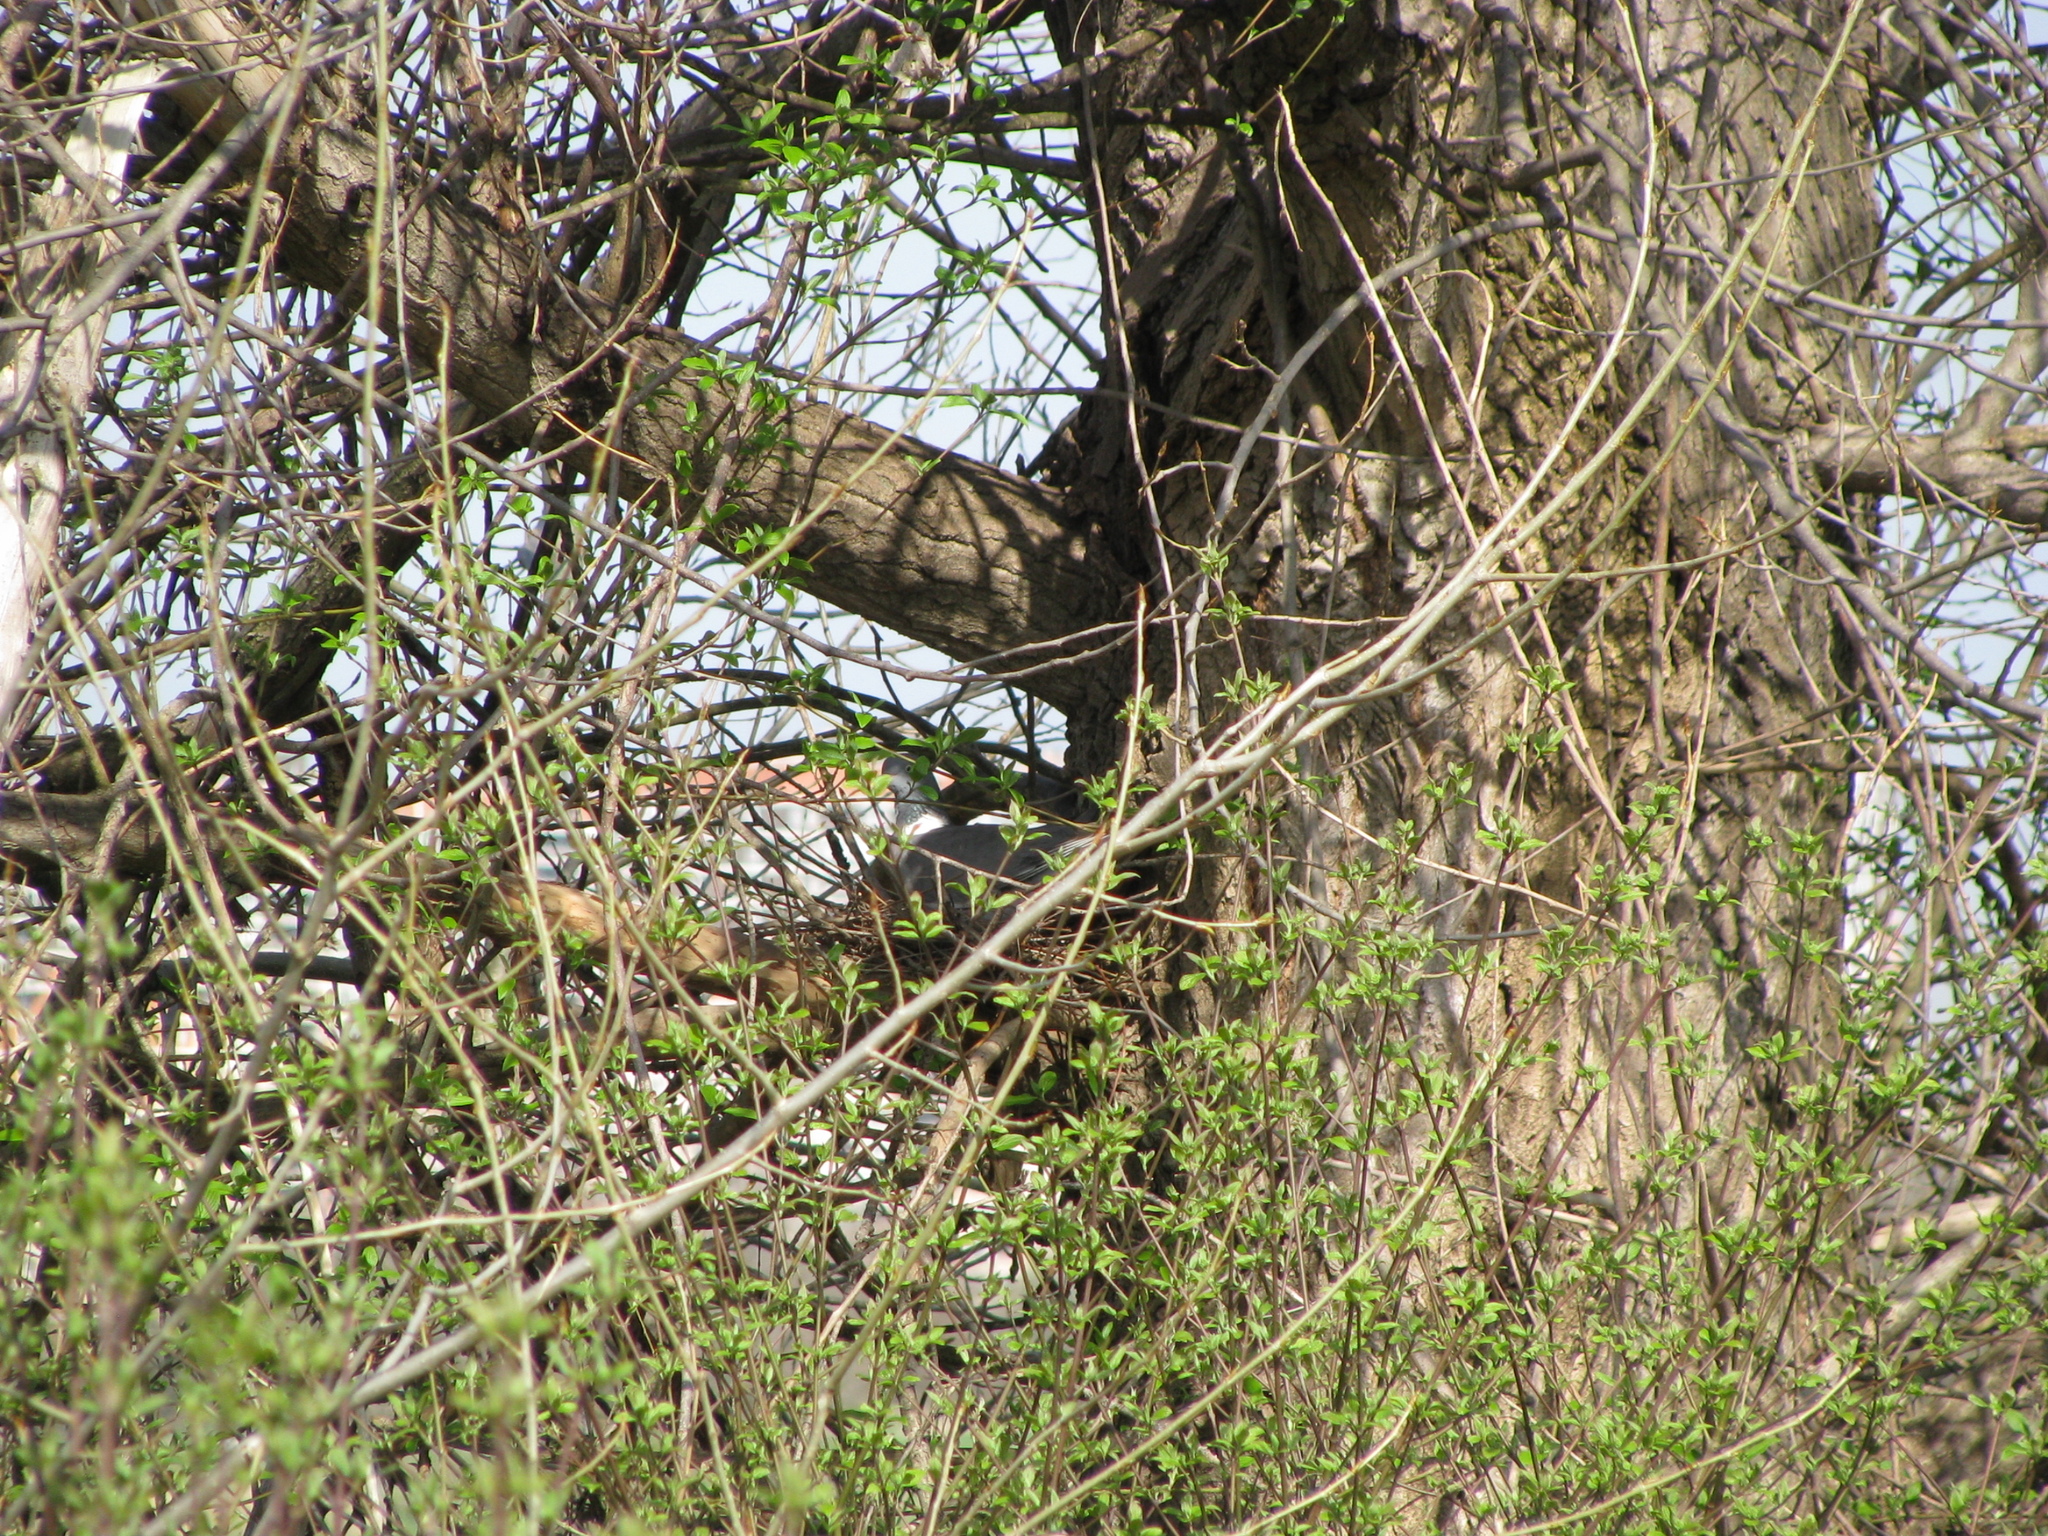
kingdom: Animalia
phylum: Chordata
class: Aves
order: Columbiformes
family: Columbidae
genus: Columba
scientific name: Columba palumbus
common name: Common wood pigeon
